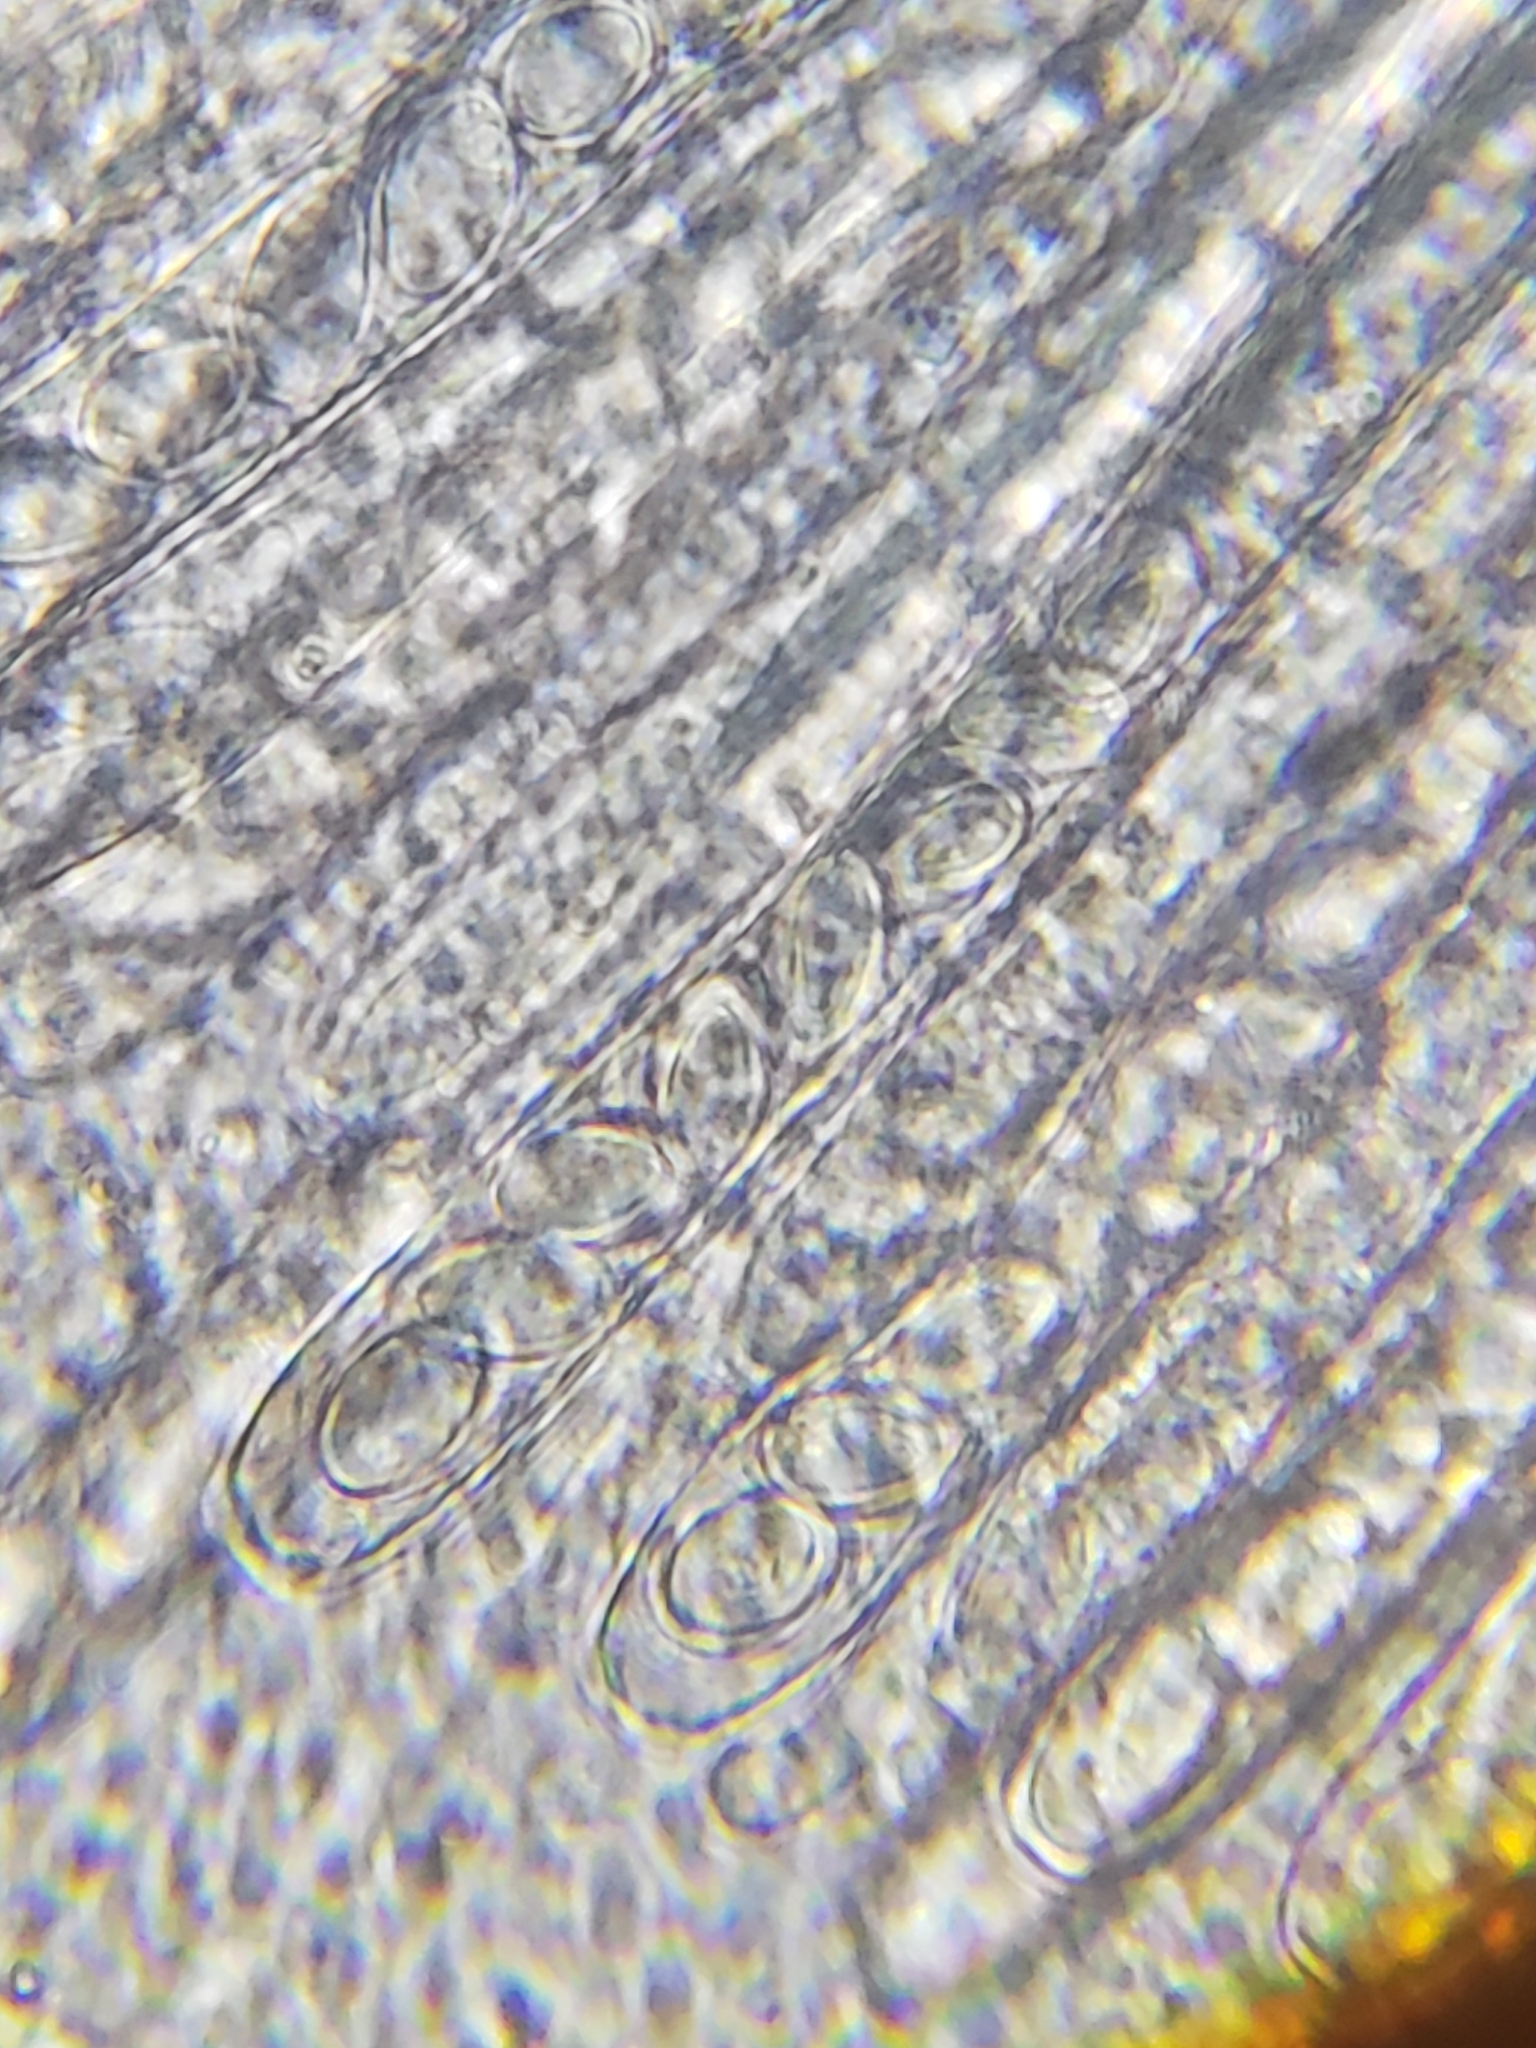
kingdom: Fungi
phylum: Ascomycota
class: Pezizomycetes
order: Pezizales
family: Pyronemataceae
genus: Leucoscypha
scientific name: Leucoscypha leucotricha
